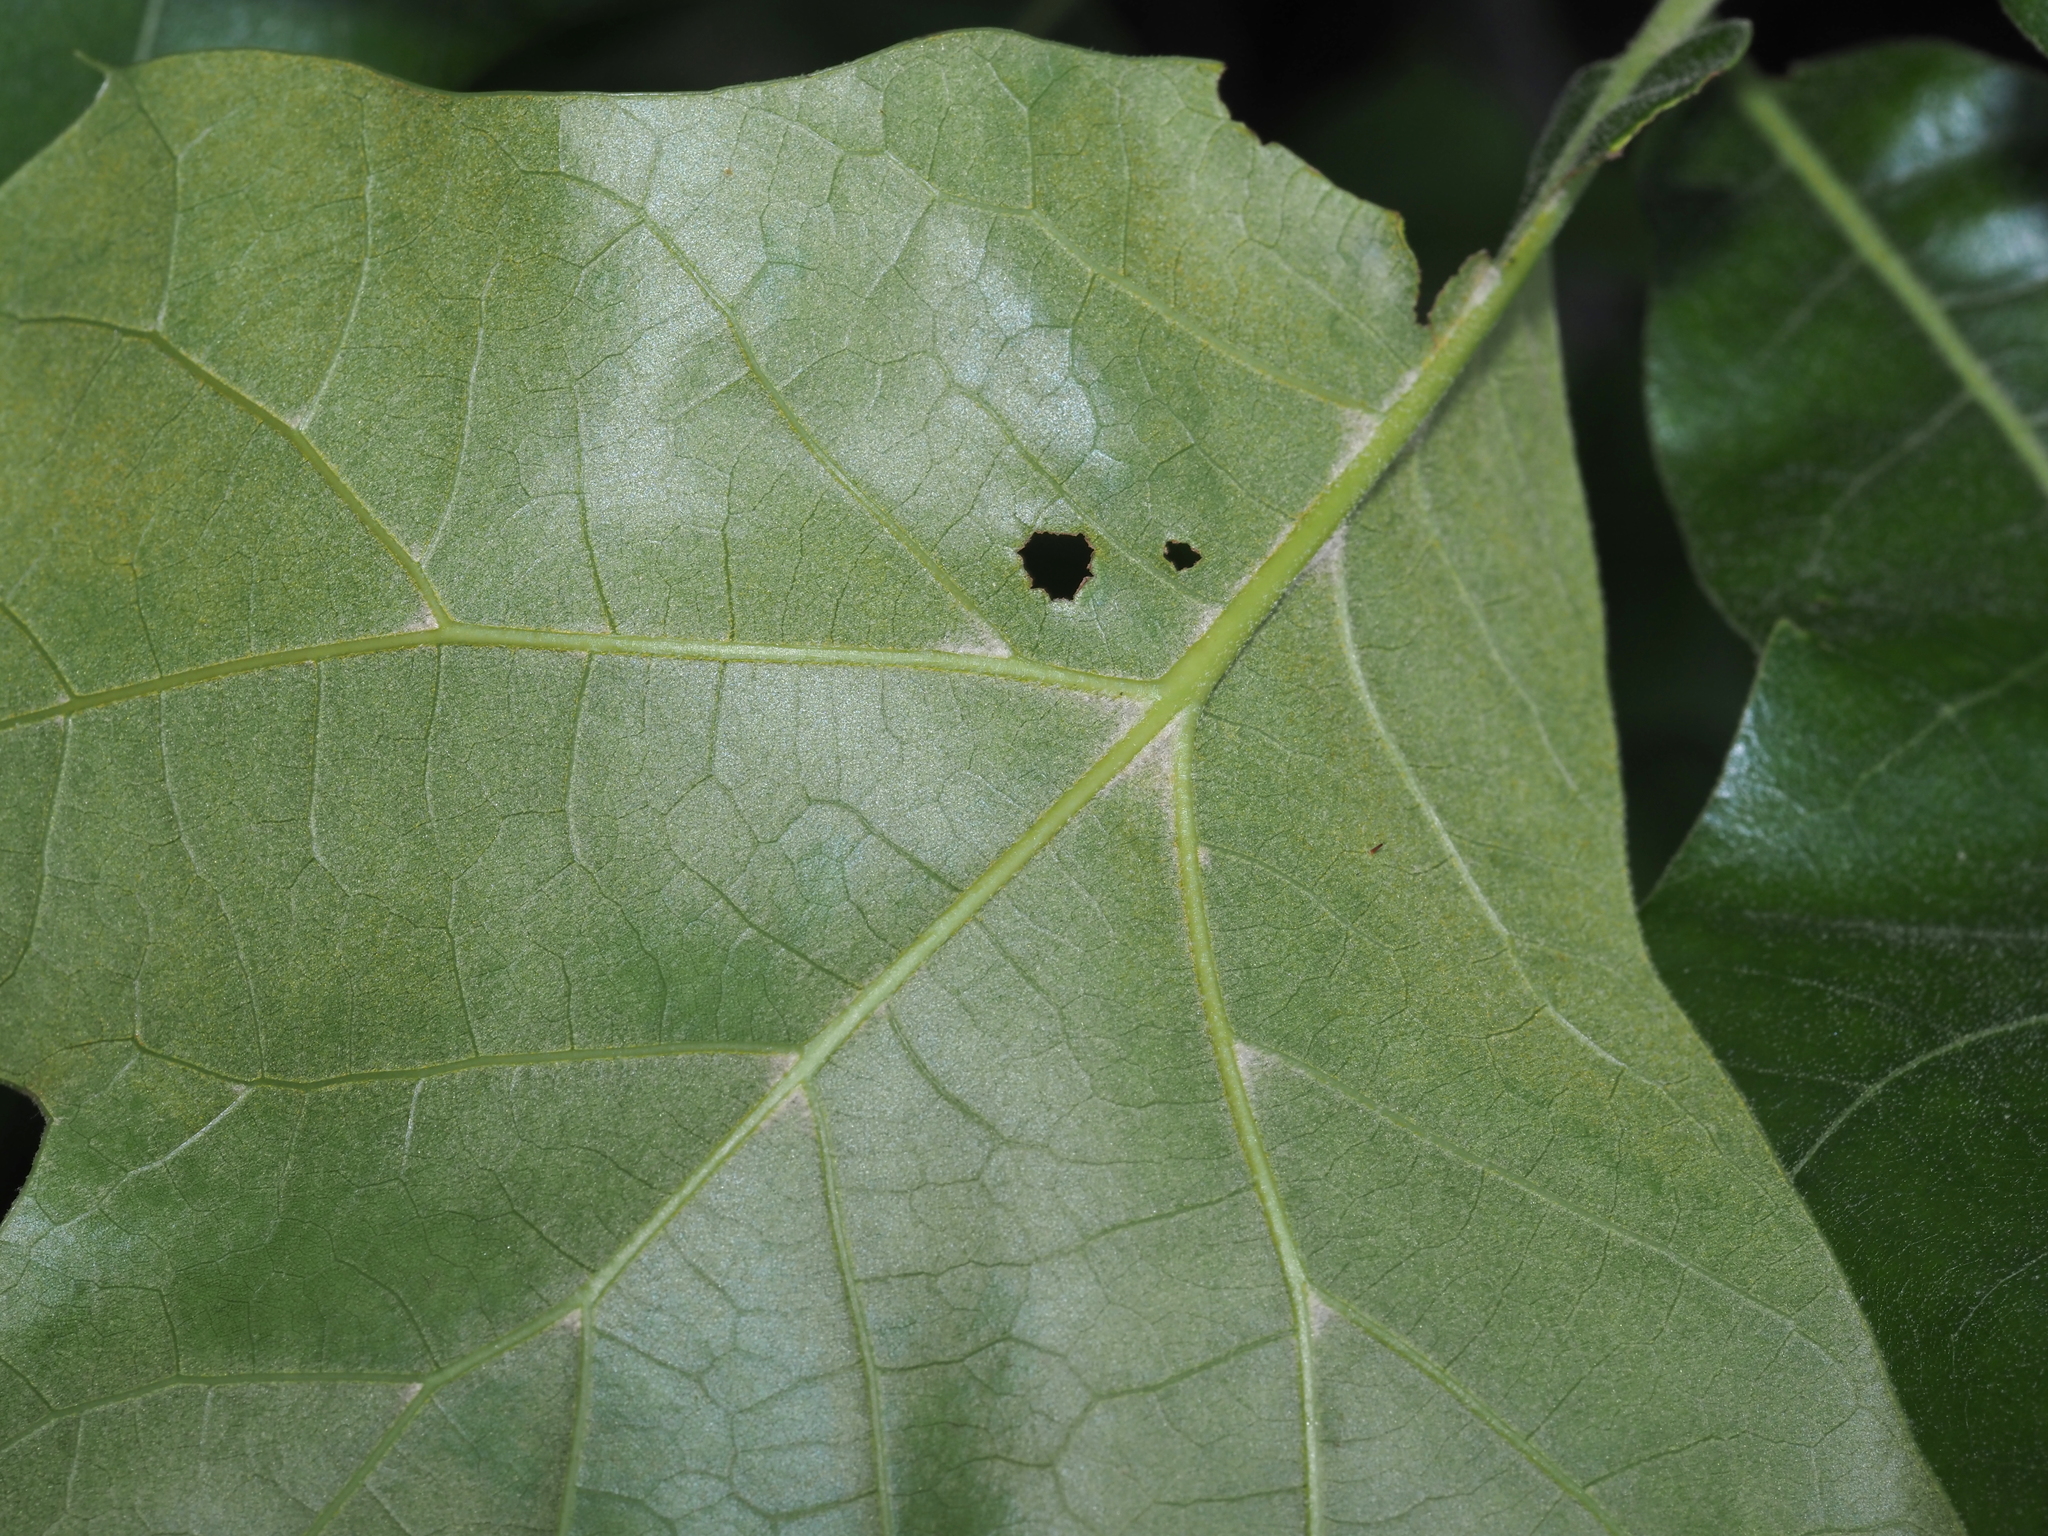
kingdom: Plantae
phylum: Tracheophyta
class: Magnoliopsida
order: Fagales
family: Fagaceae
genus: Quercus
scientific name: Quercus marilandica
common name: Blackjack oak
